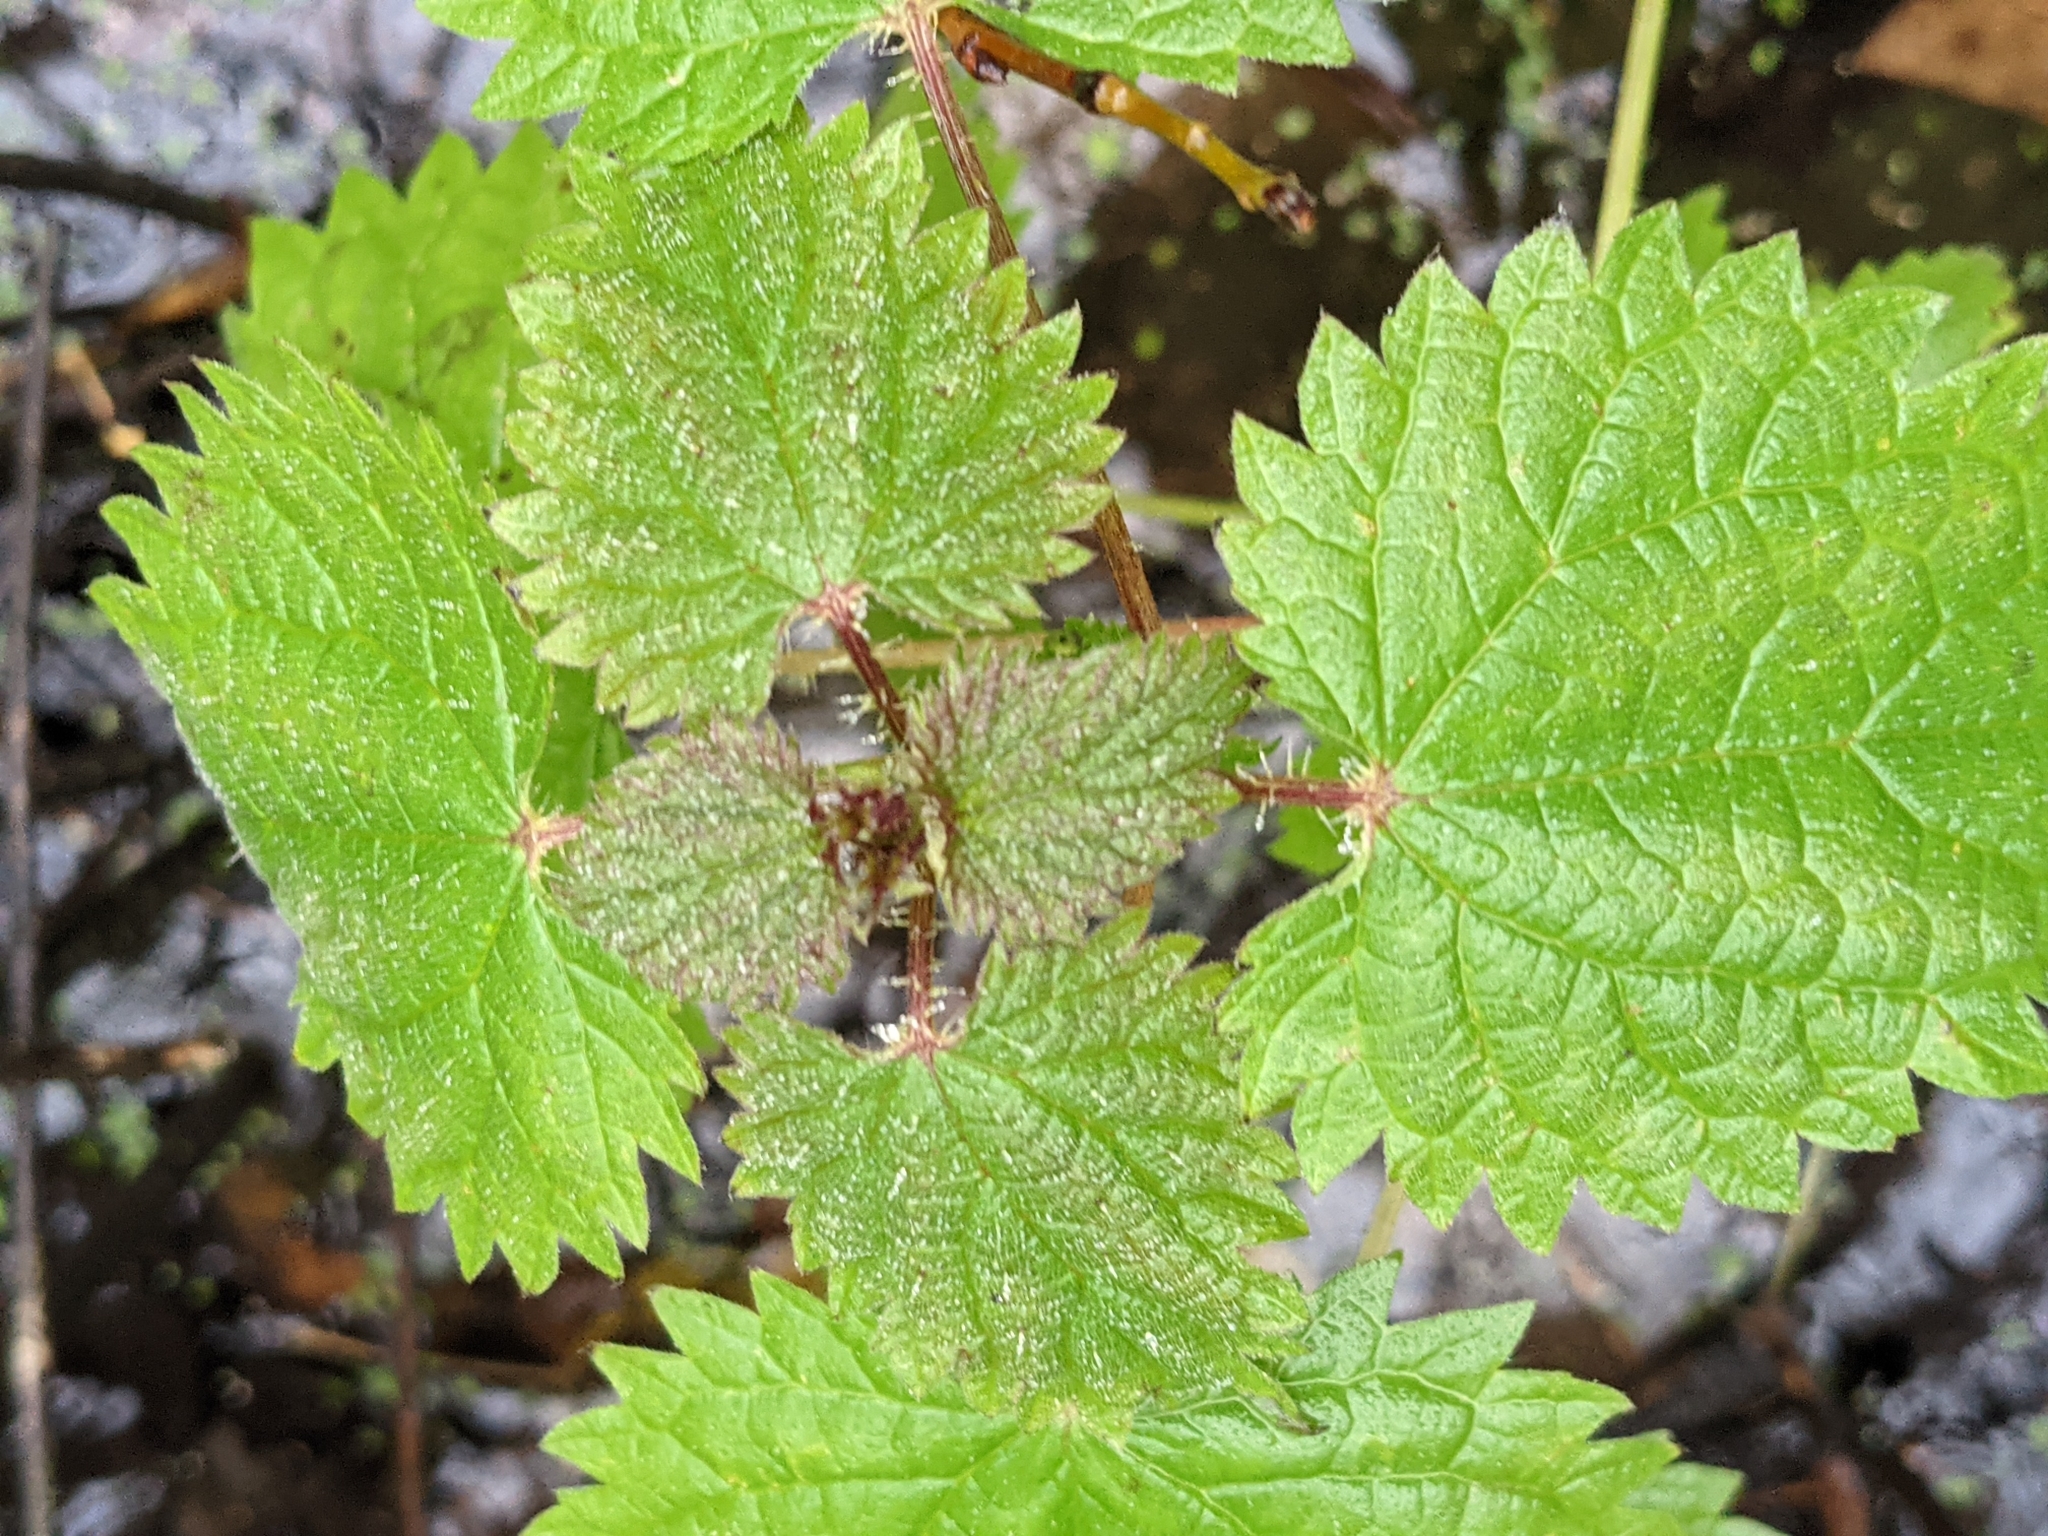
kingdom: Plantae
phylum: Tracheophyta
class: Magnoliopsida
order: Rosales
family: Urticaceae
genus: Urtica
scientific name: Urtica dioica
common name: Common nettle
